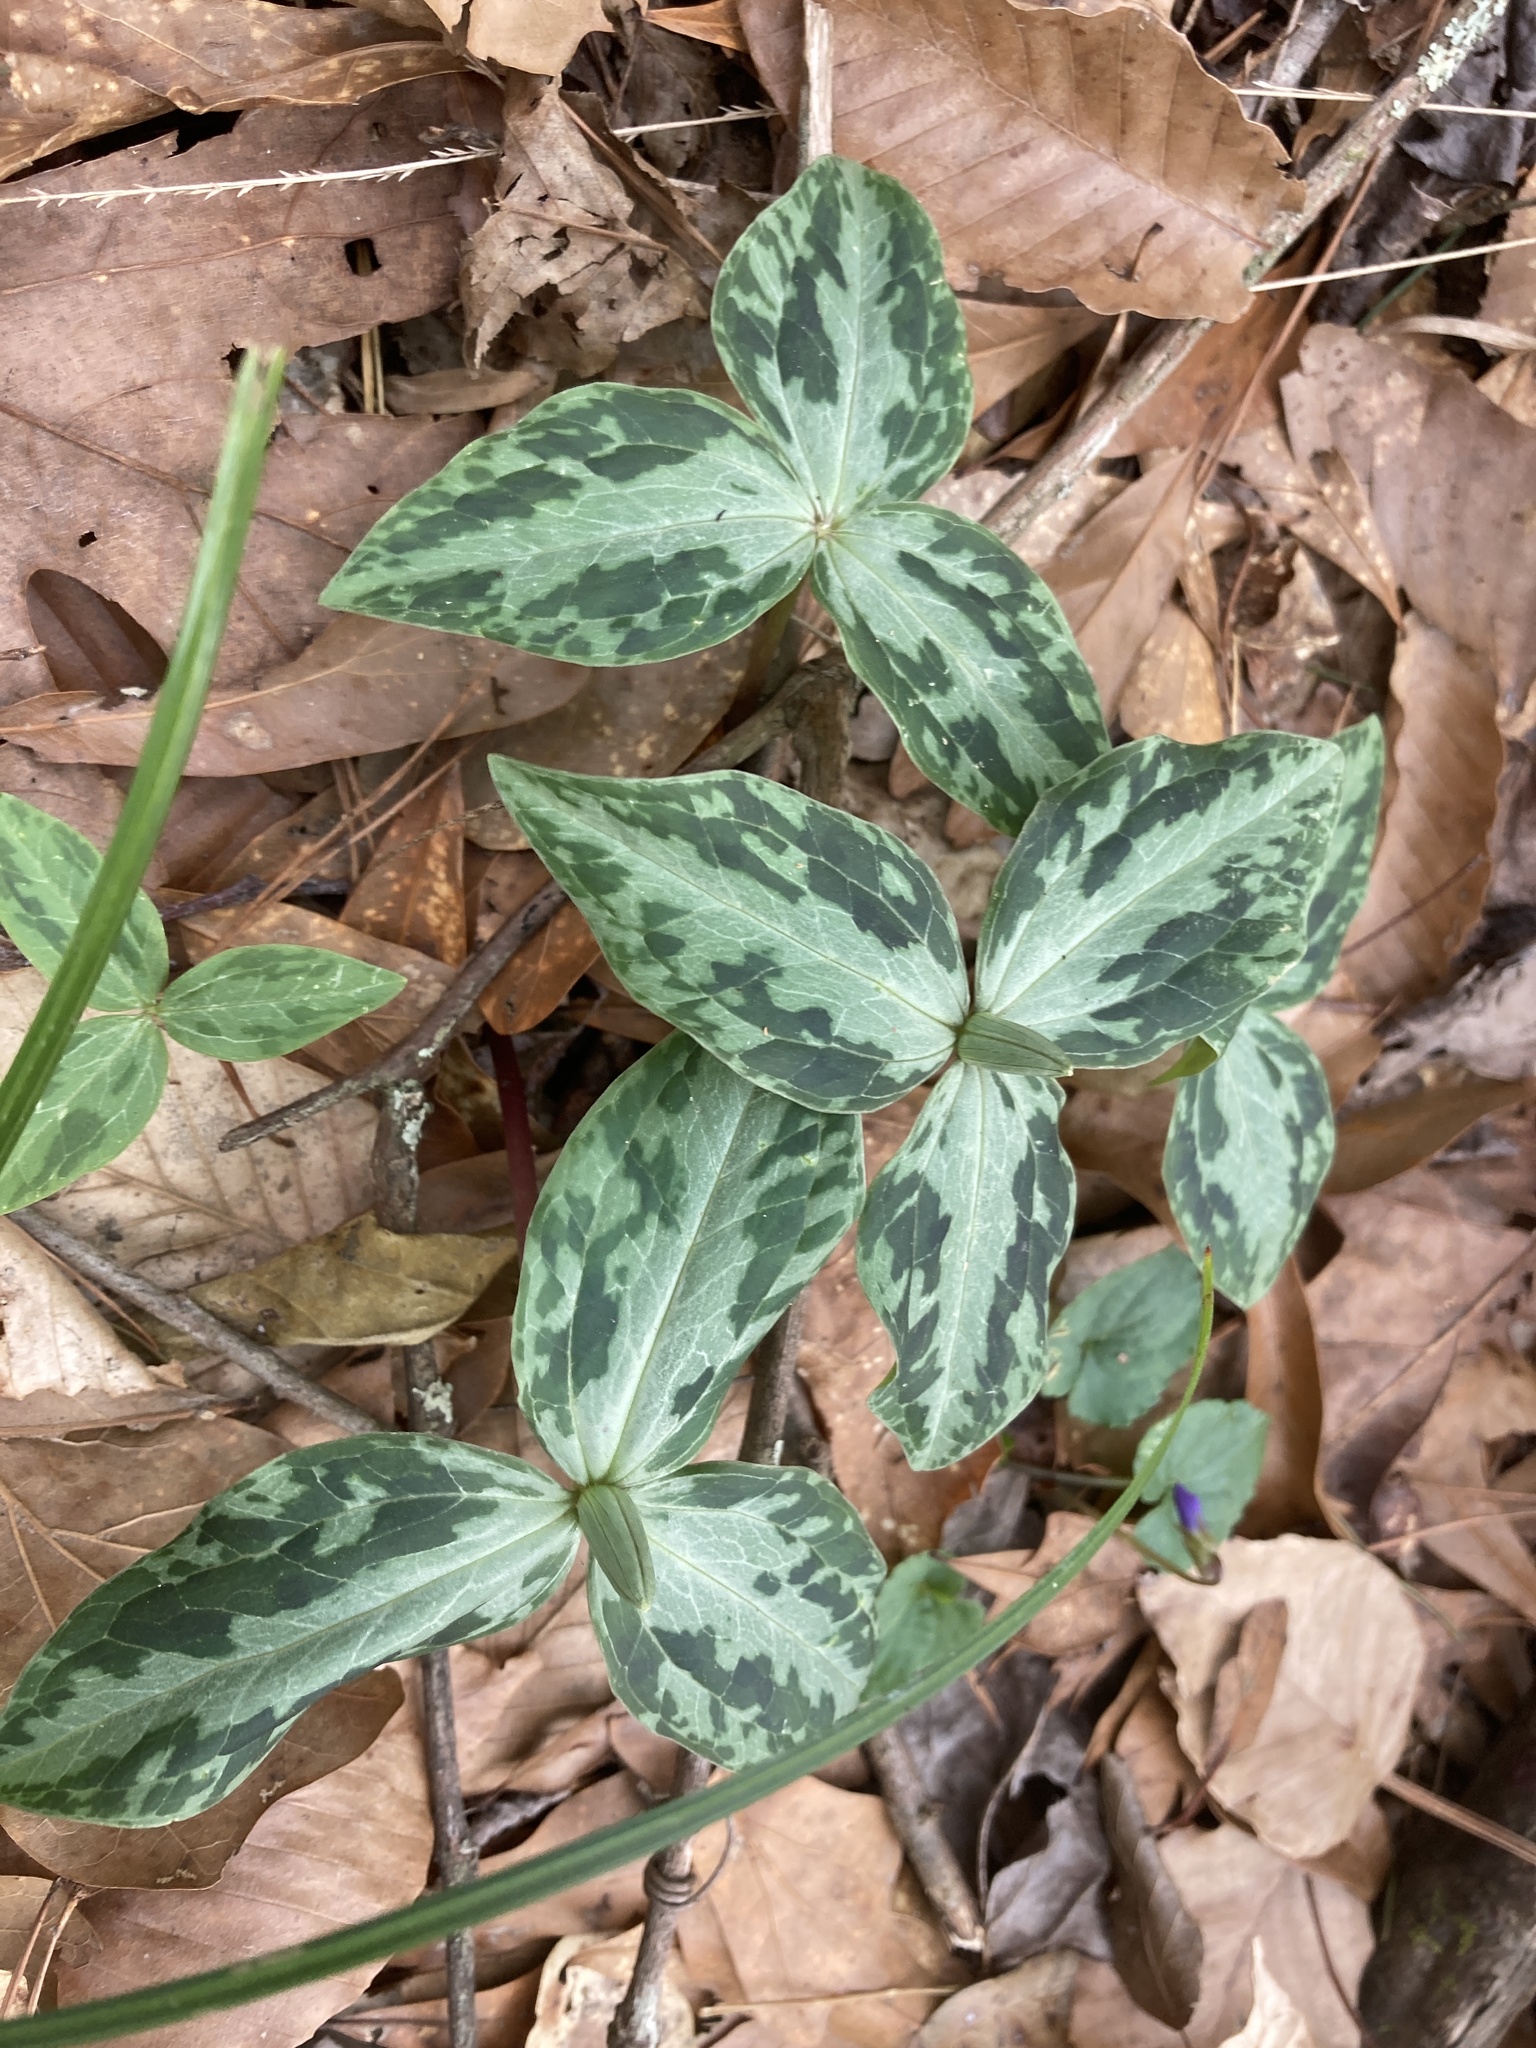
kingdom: Plantae
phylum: Tracheophyta
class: Liliopsida
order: Liliales
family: Melanthiaceae
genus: Trillium
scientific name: Trillium foetidissimum
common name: Mississippi river trillium
